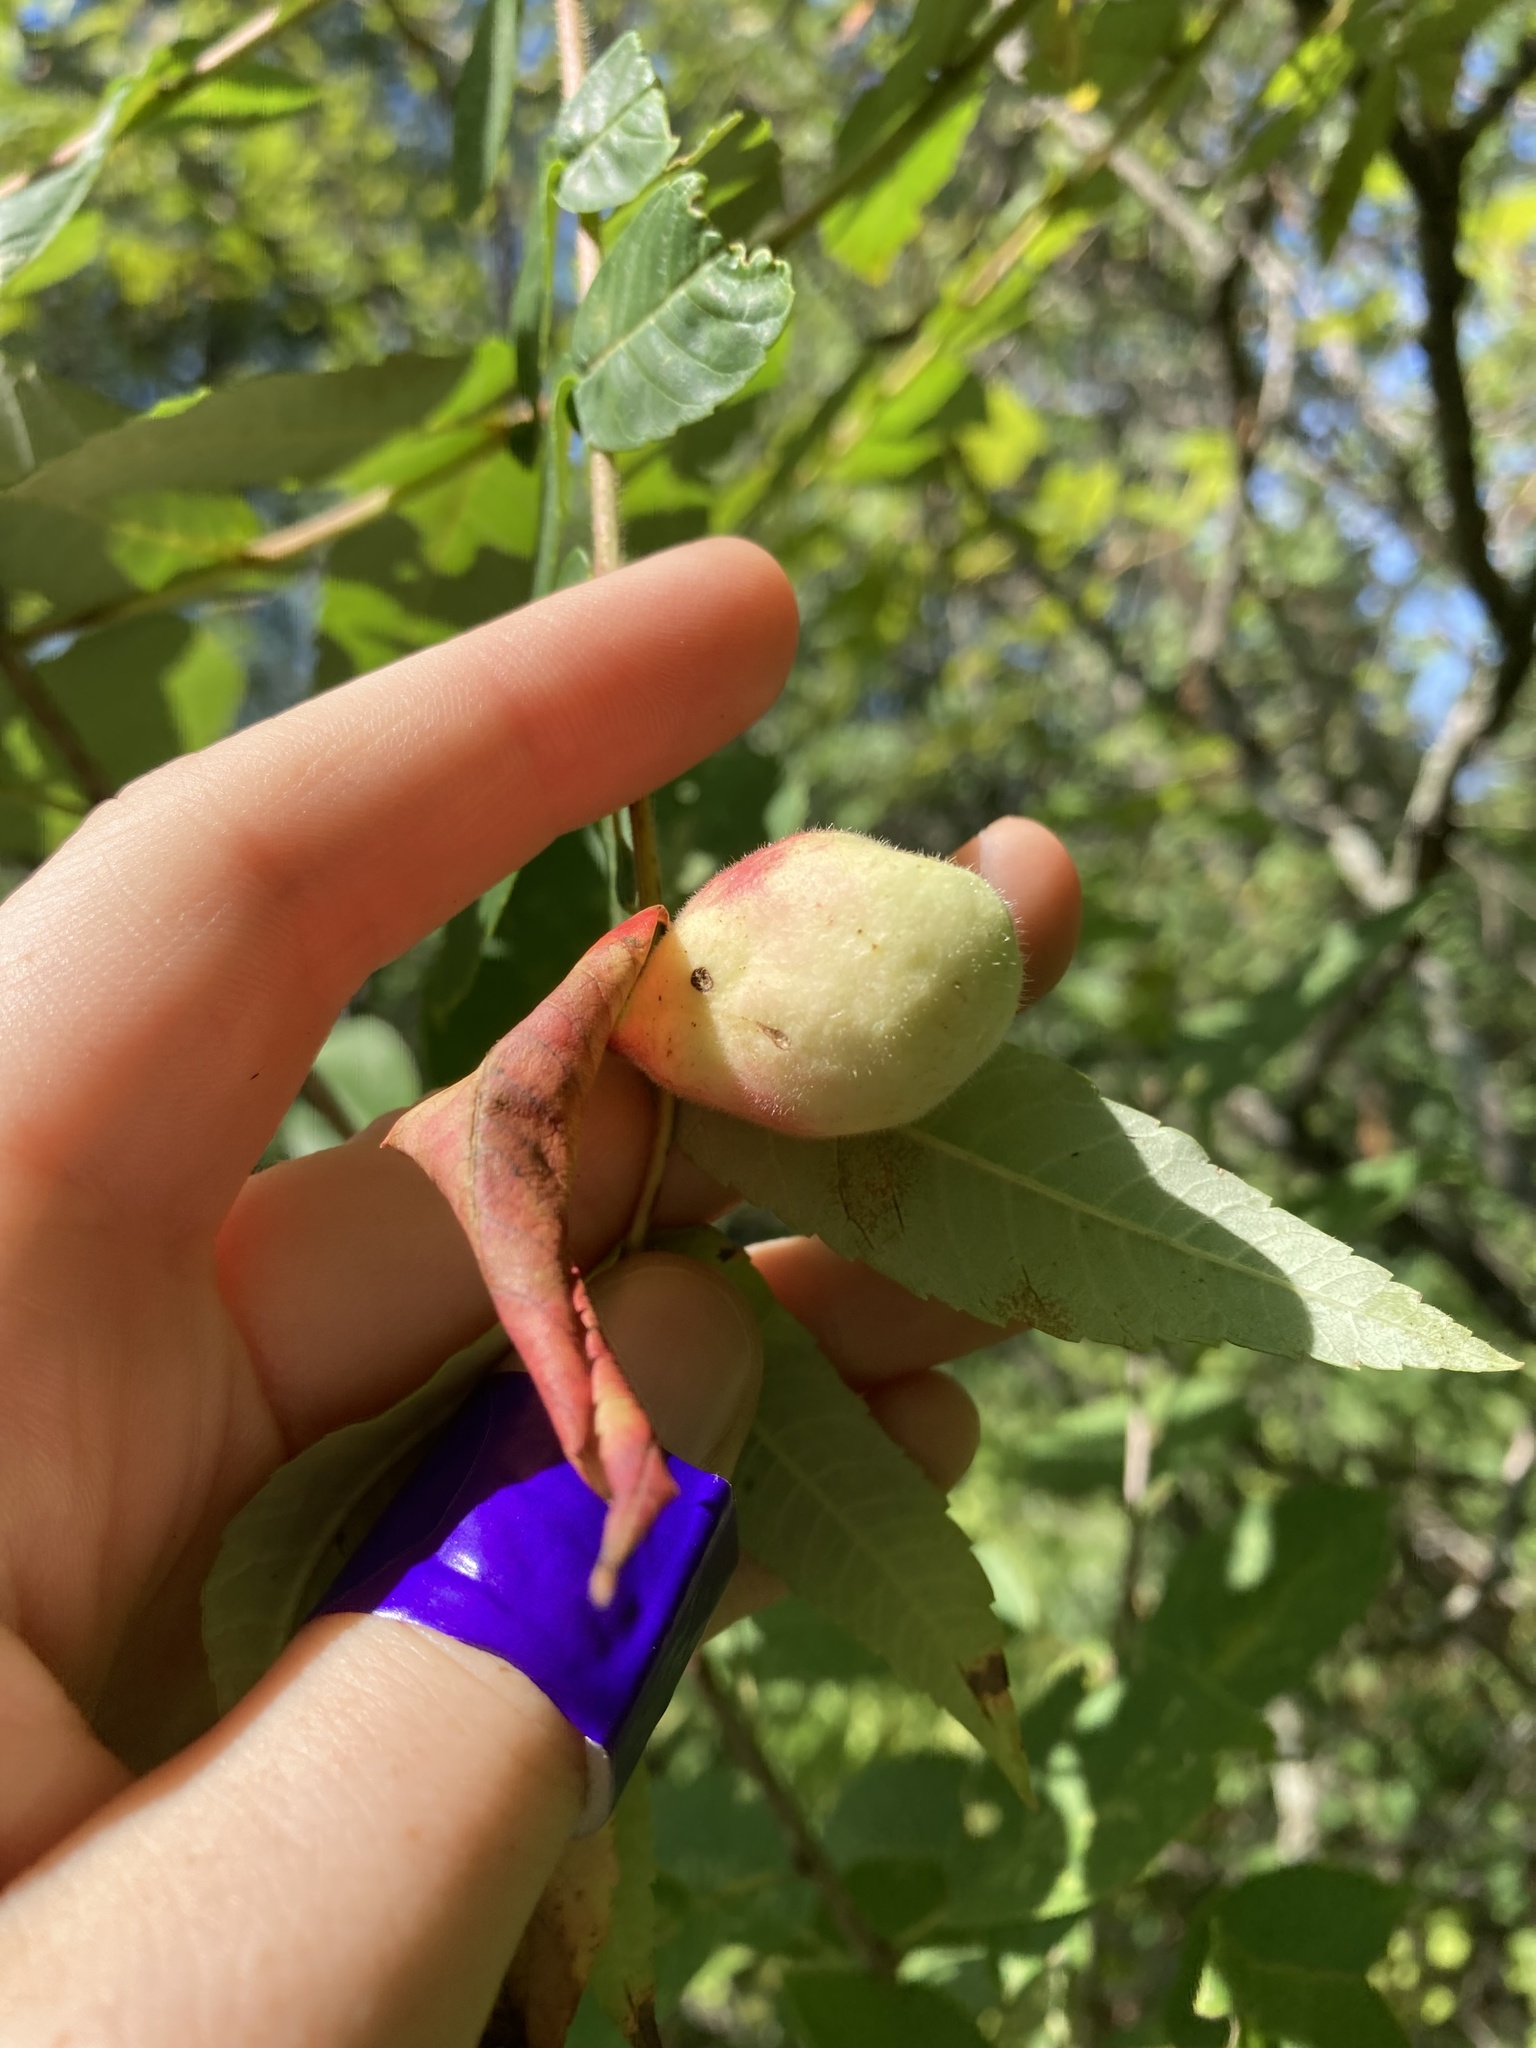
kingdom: Animalia
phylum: Arthropoda
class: Insecta
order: Hemiptera
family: Aphididae
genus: Melaphis
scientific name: Melaphis rhois
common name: Sumac gall aphid
